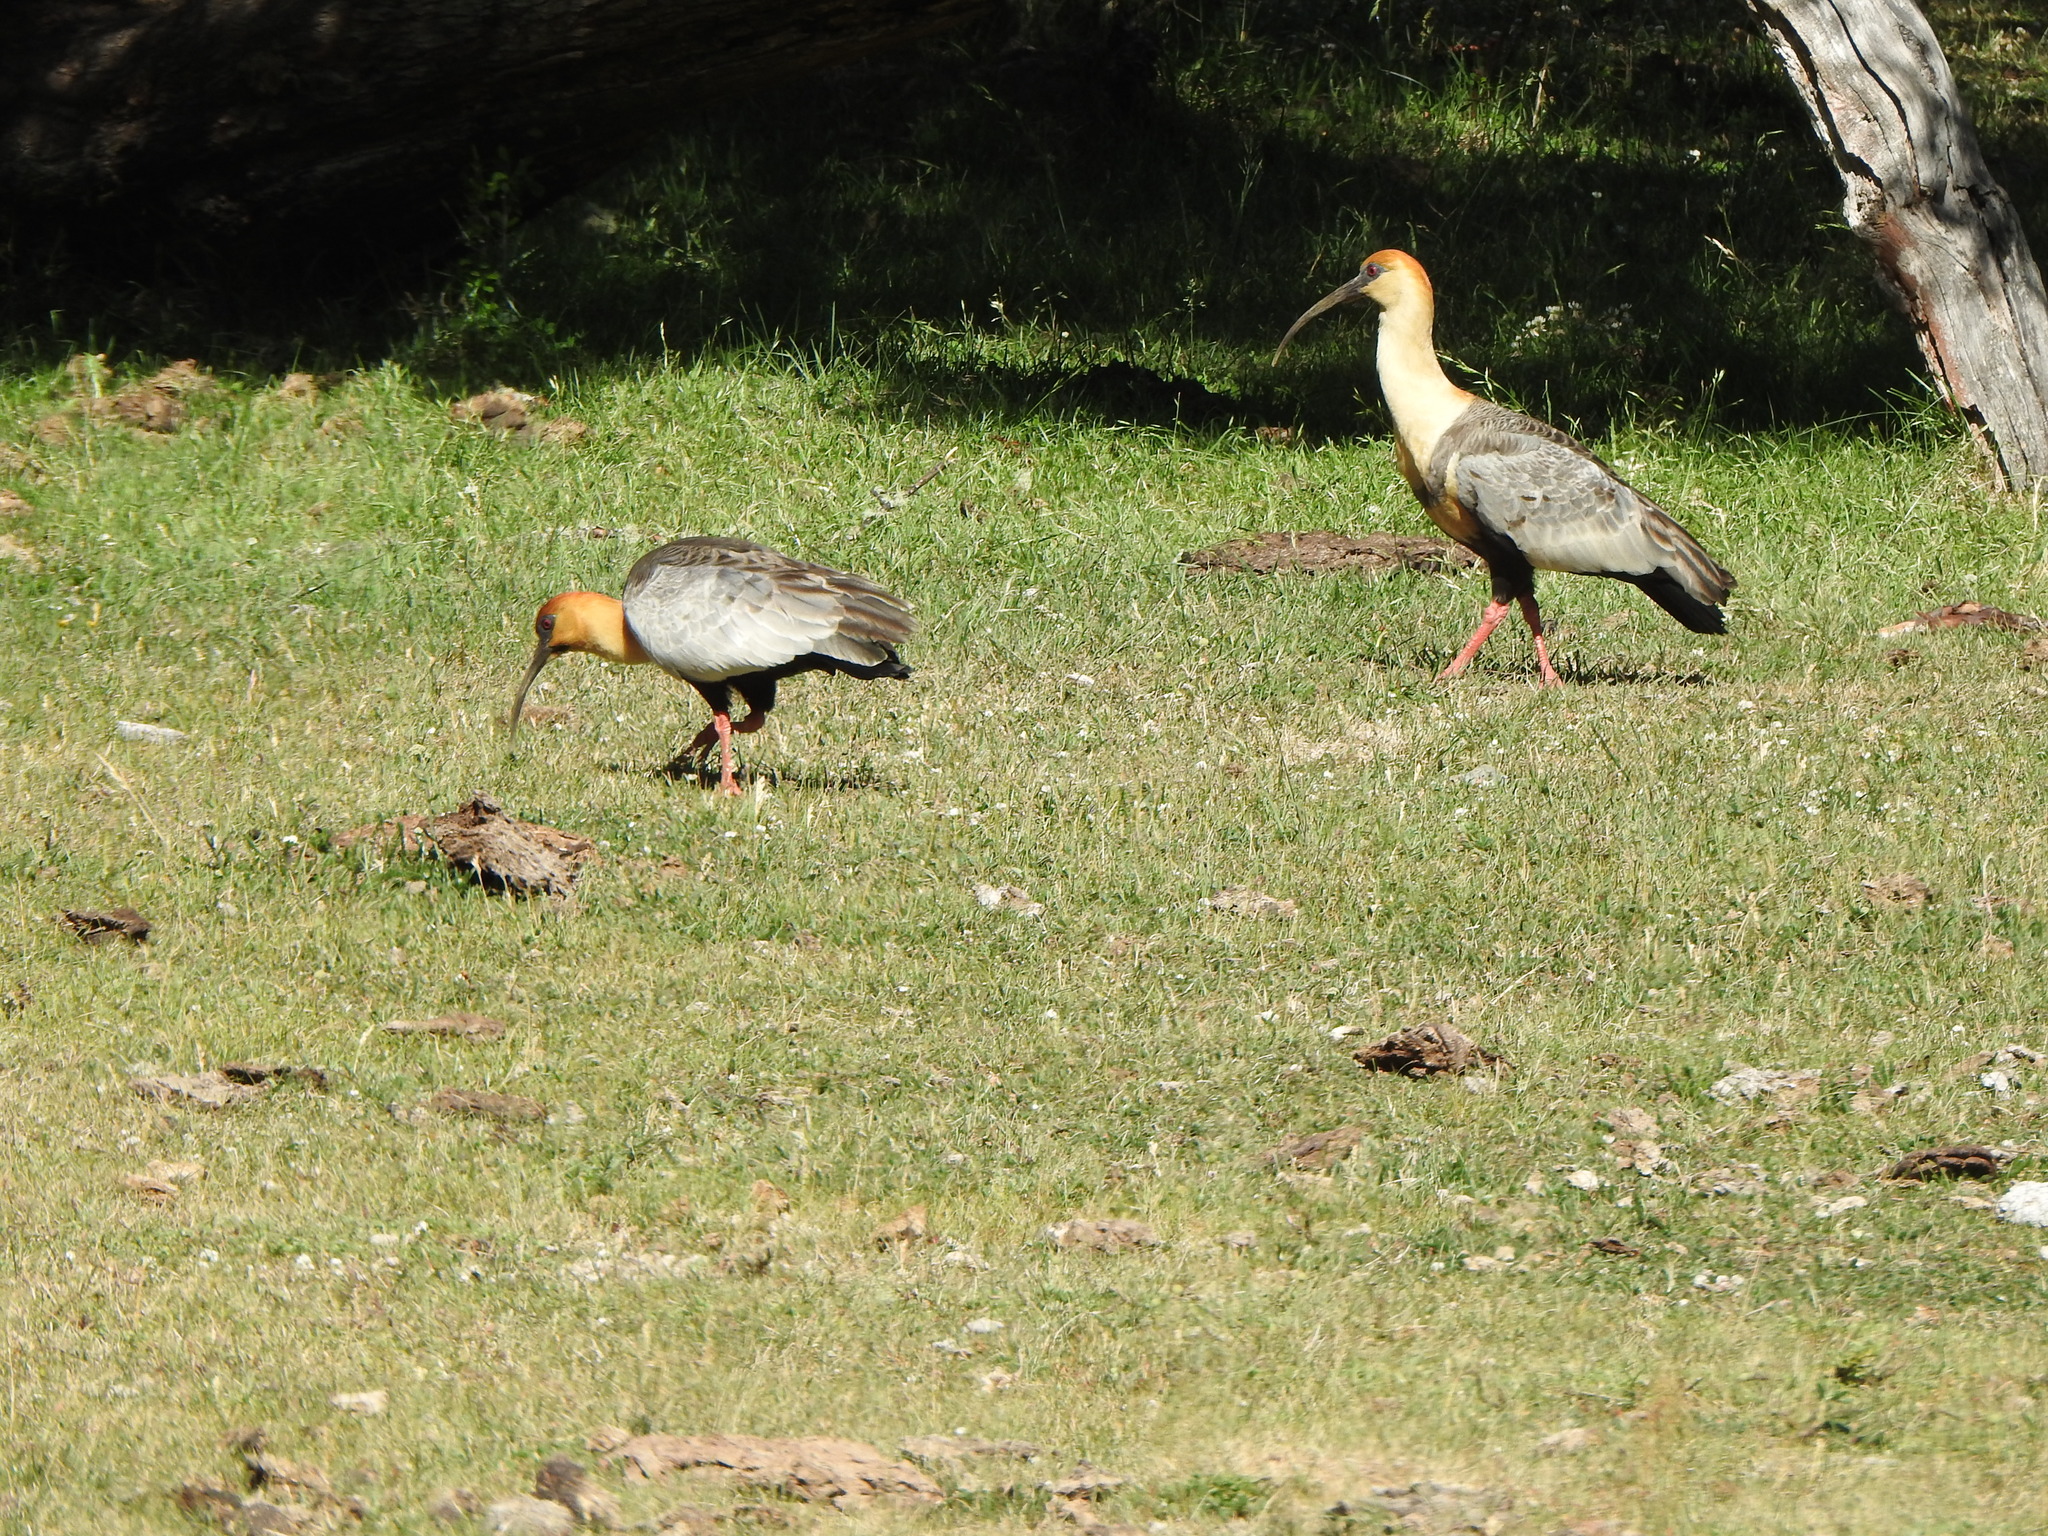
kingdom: Animalia
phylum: Chordata
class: Aves
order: Pelecaniformes
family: Threskiornithidae
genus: Theristicus
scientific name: Theristicus melanopis
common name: Black-faced ibis
